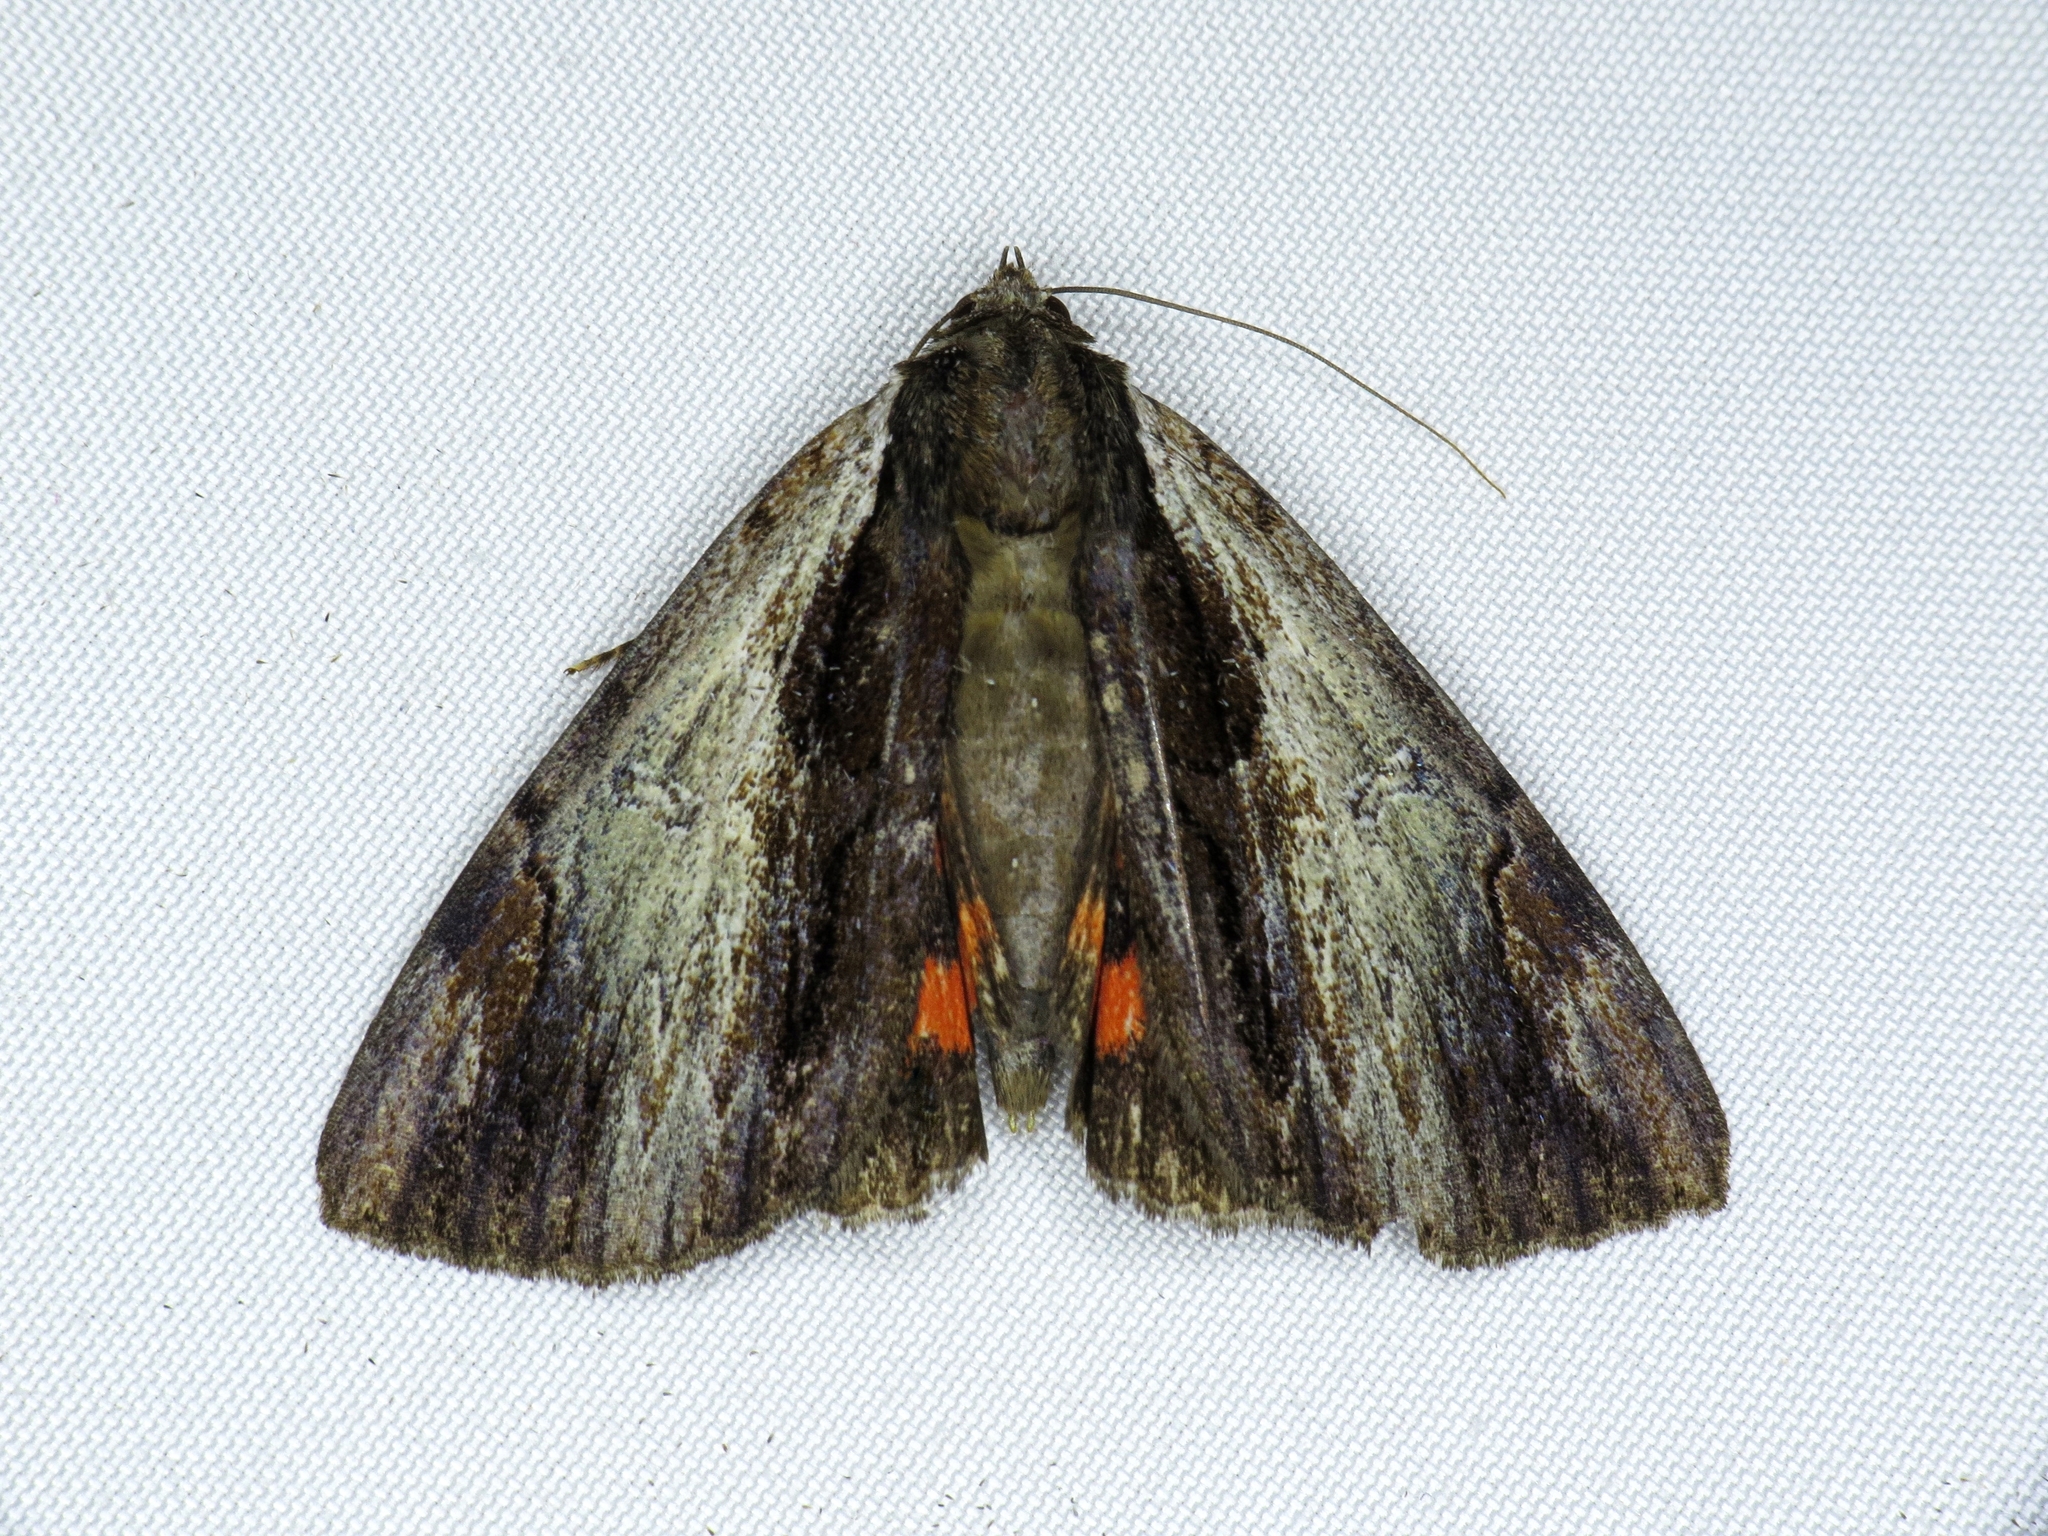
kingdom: Animalia
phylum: Arthropoda
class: Insecta
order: Lepidoptera
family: Erebidae
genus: Catocala
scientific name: Catocala ultronia
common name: Ultronia underwing
